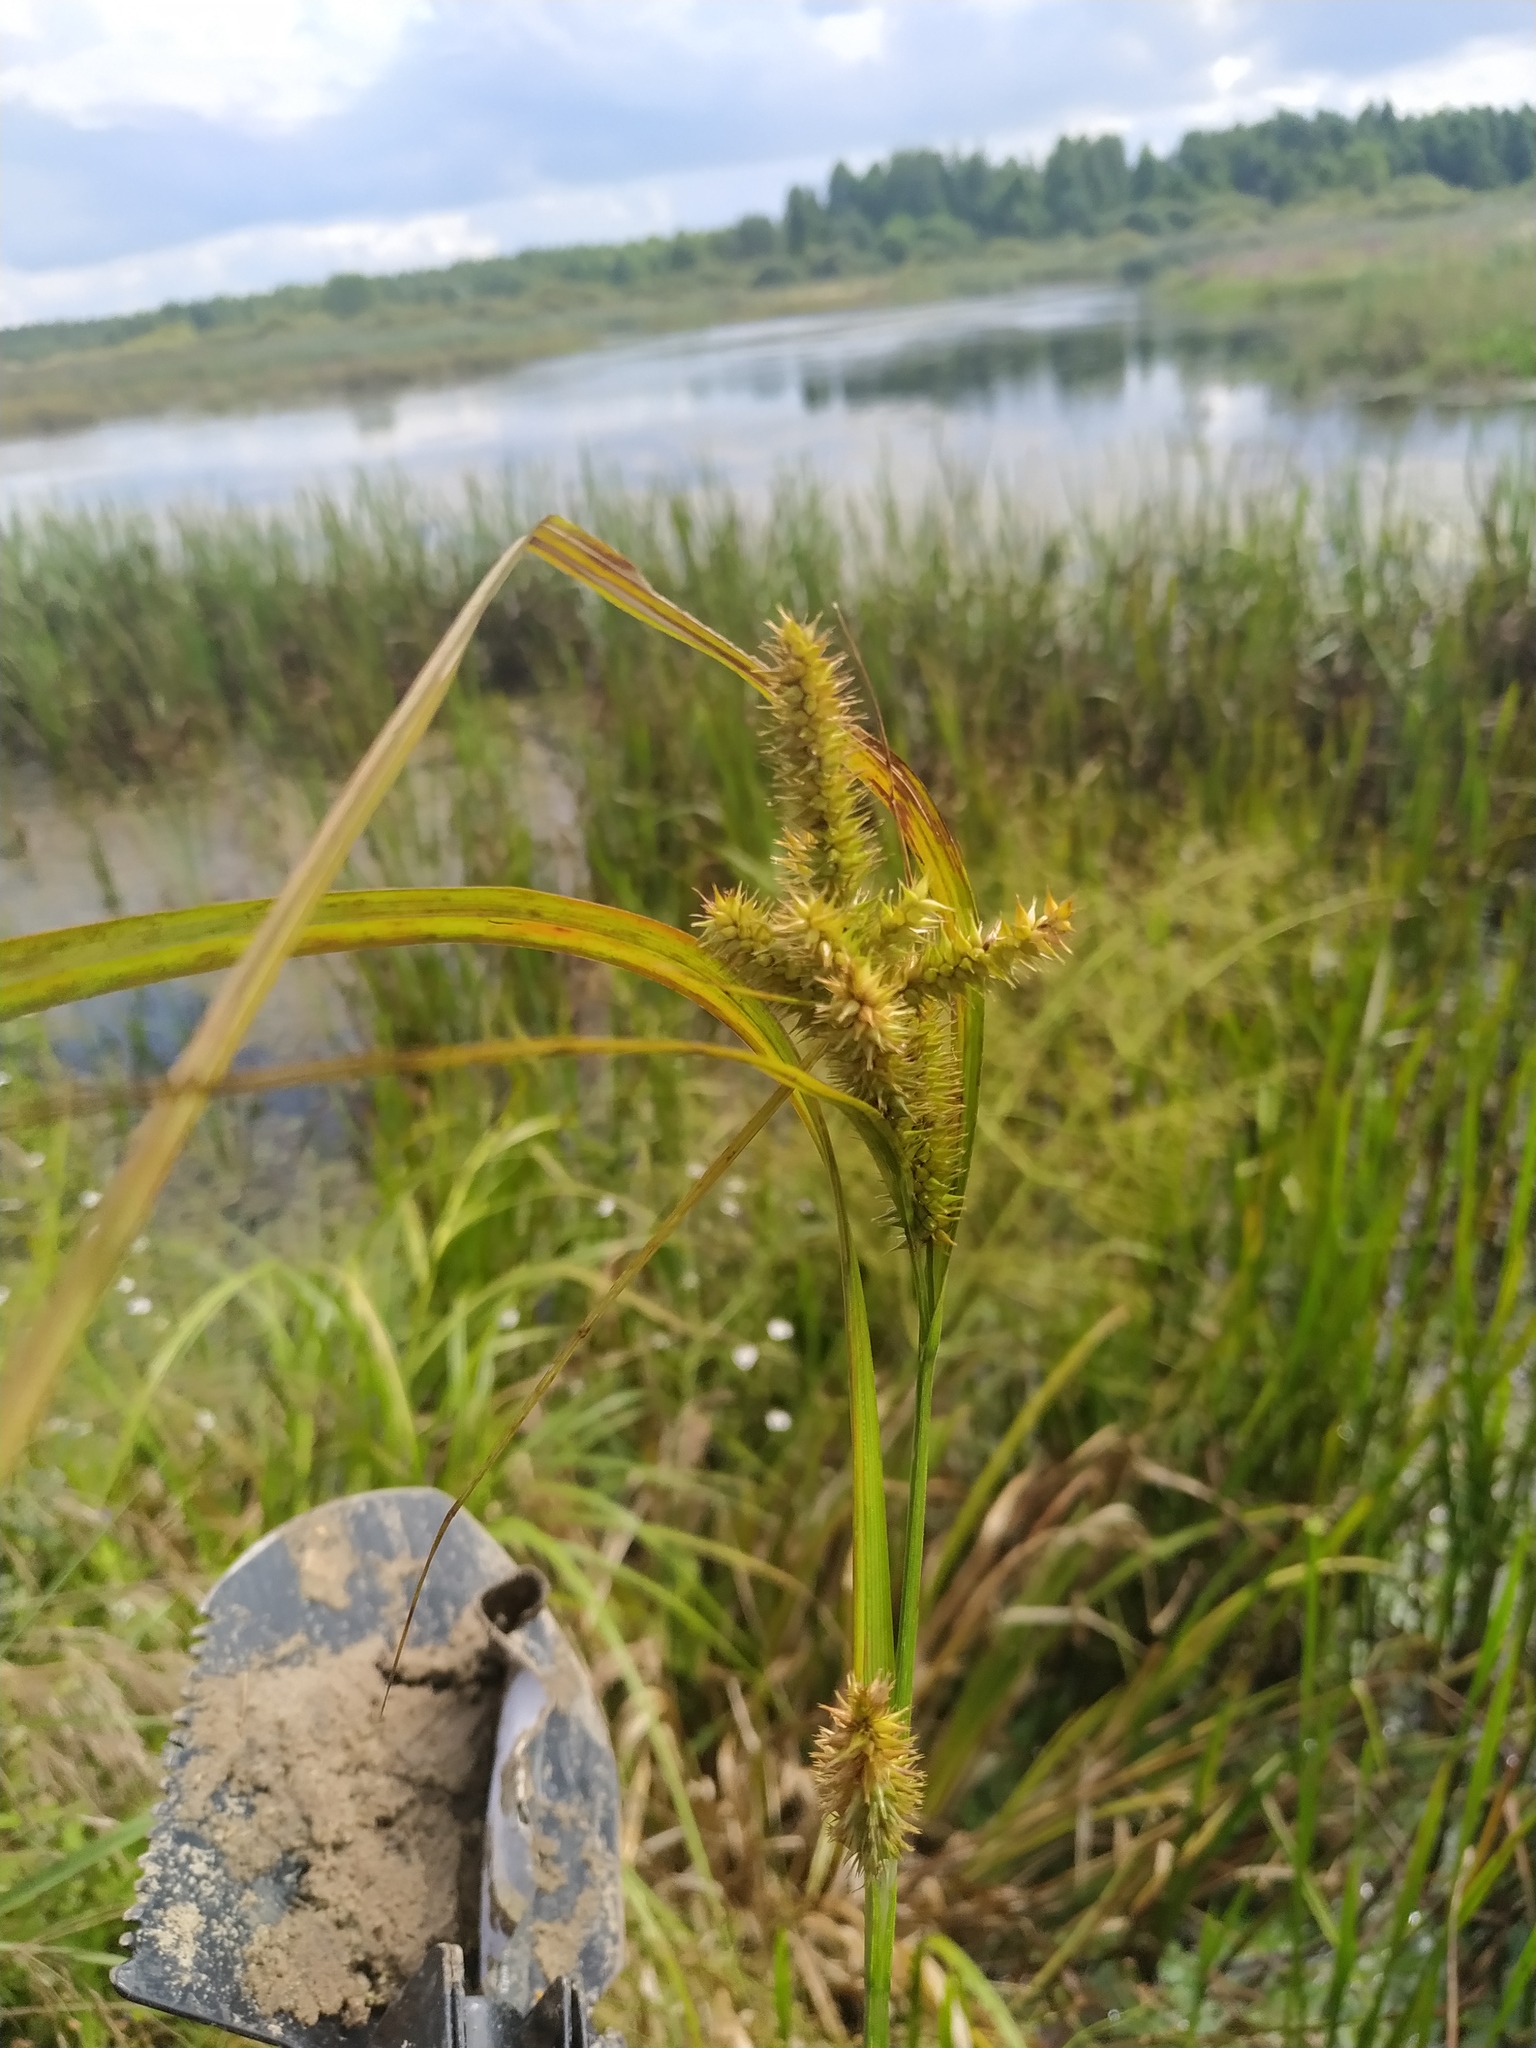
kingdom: Plantae
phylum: Tracheophyta
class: Liliopsida
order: Poales
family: Cyperaceae
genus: Carex
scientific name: Carex pseudocyperus
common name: Cyperus sedge
